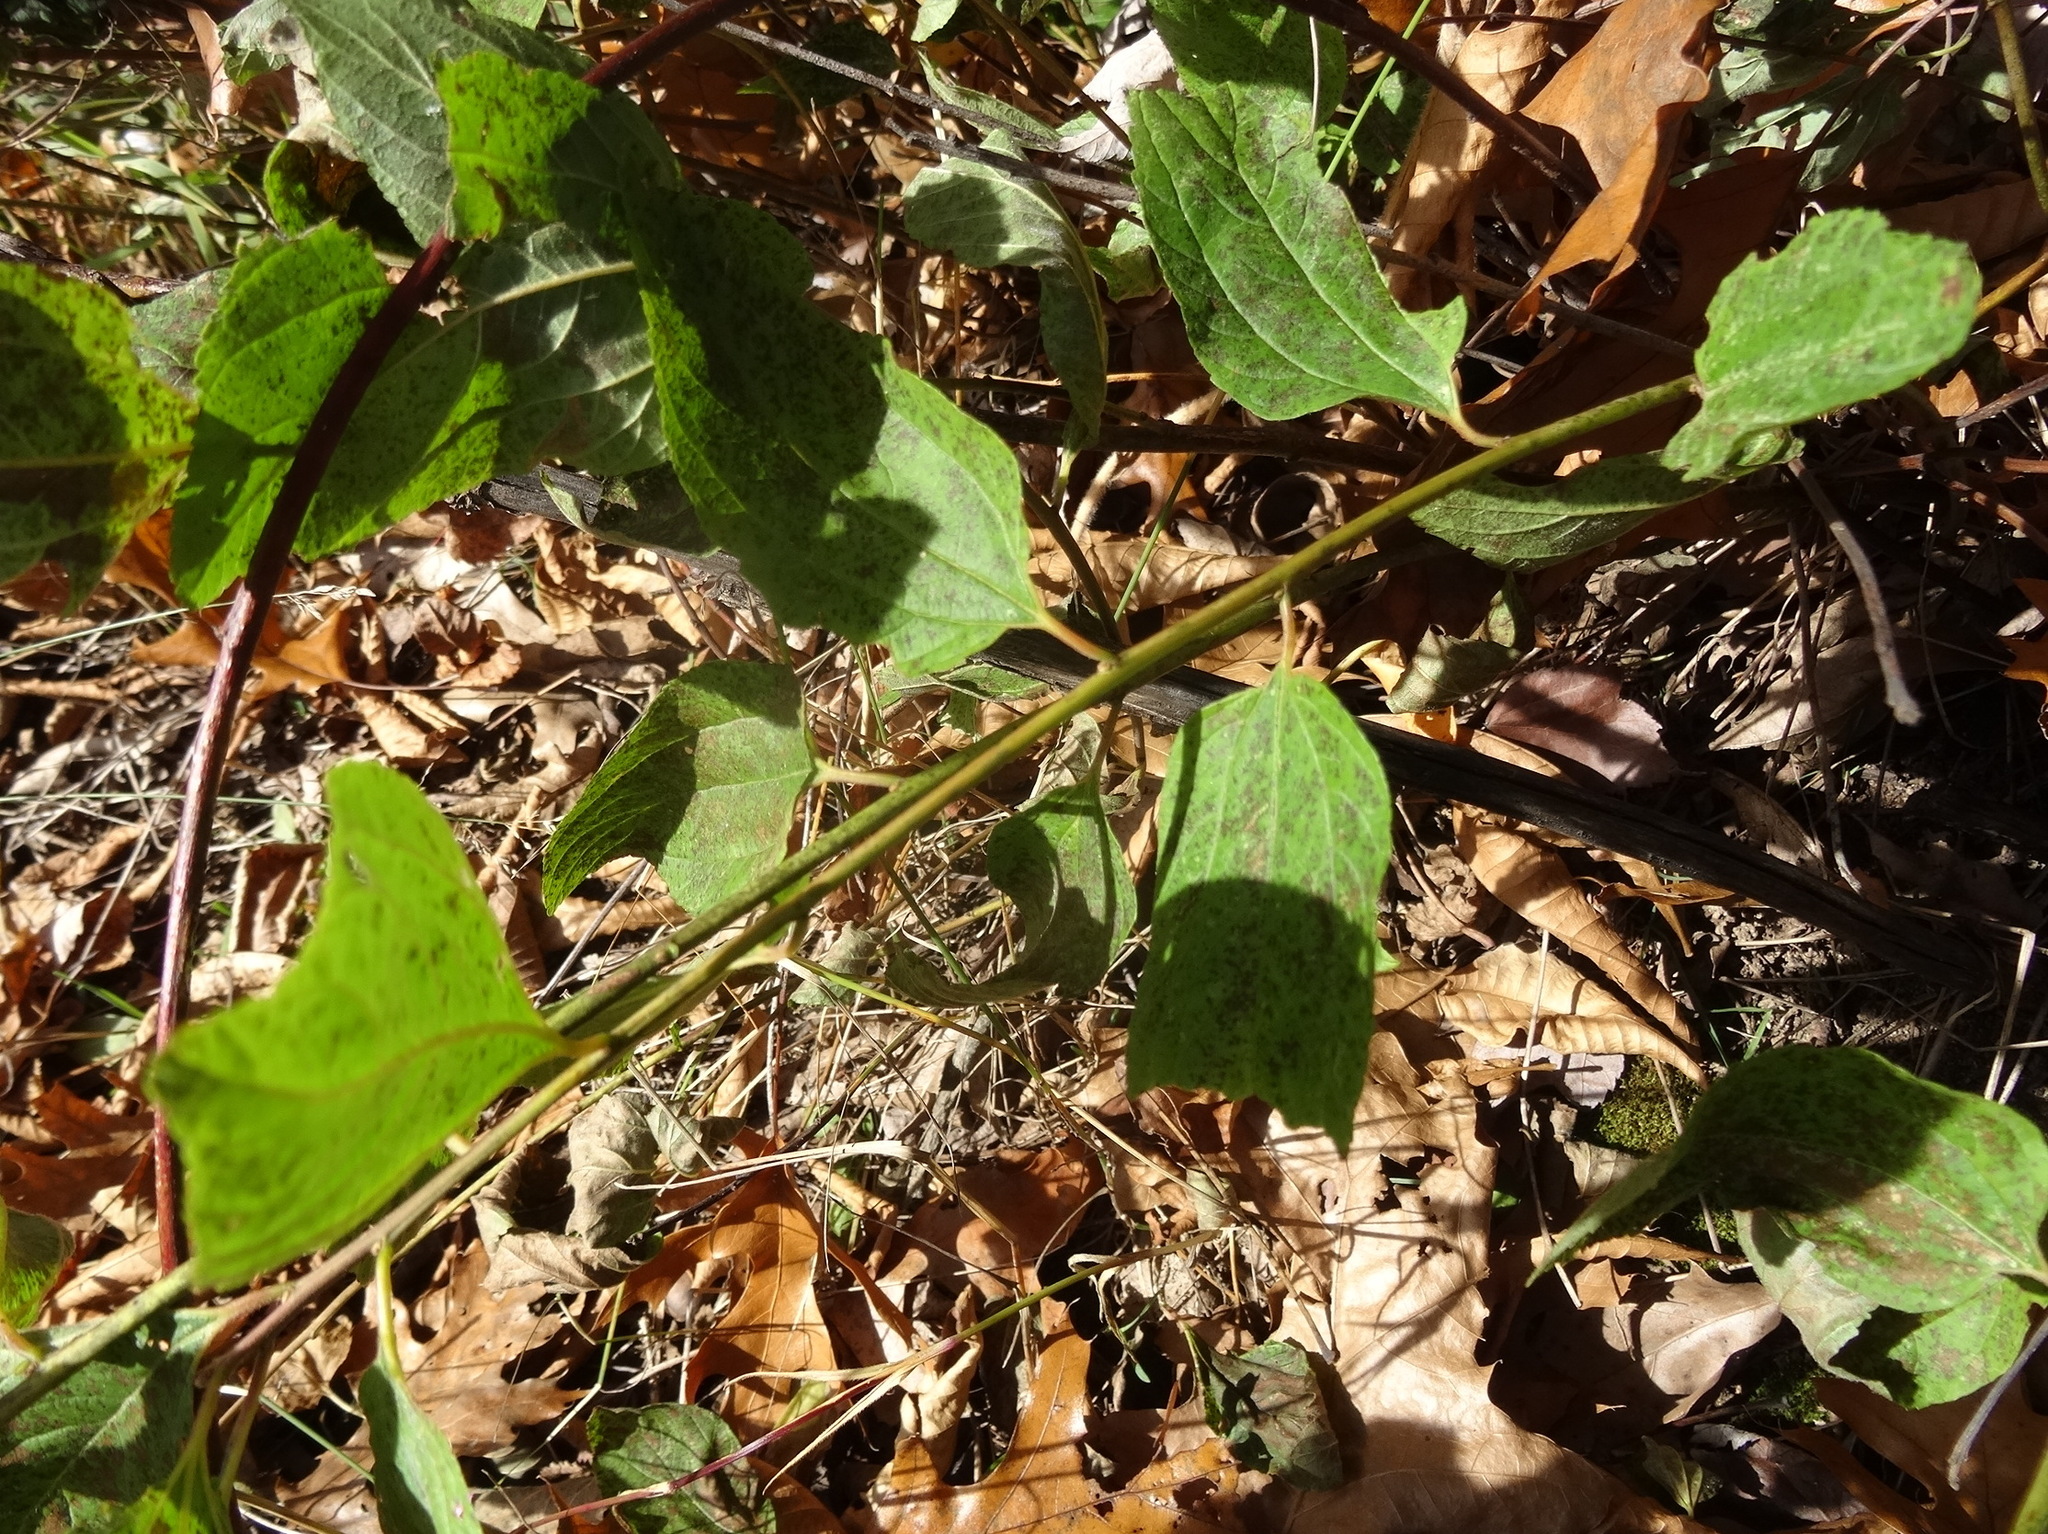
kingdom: Plantae
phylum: Tracheophyta
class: Magnoliopsida
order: Rosales
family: Rhamnaceae
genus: Ceanothus
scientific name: Ceanothus americanus
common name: Redroot
